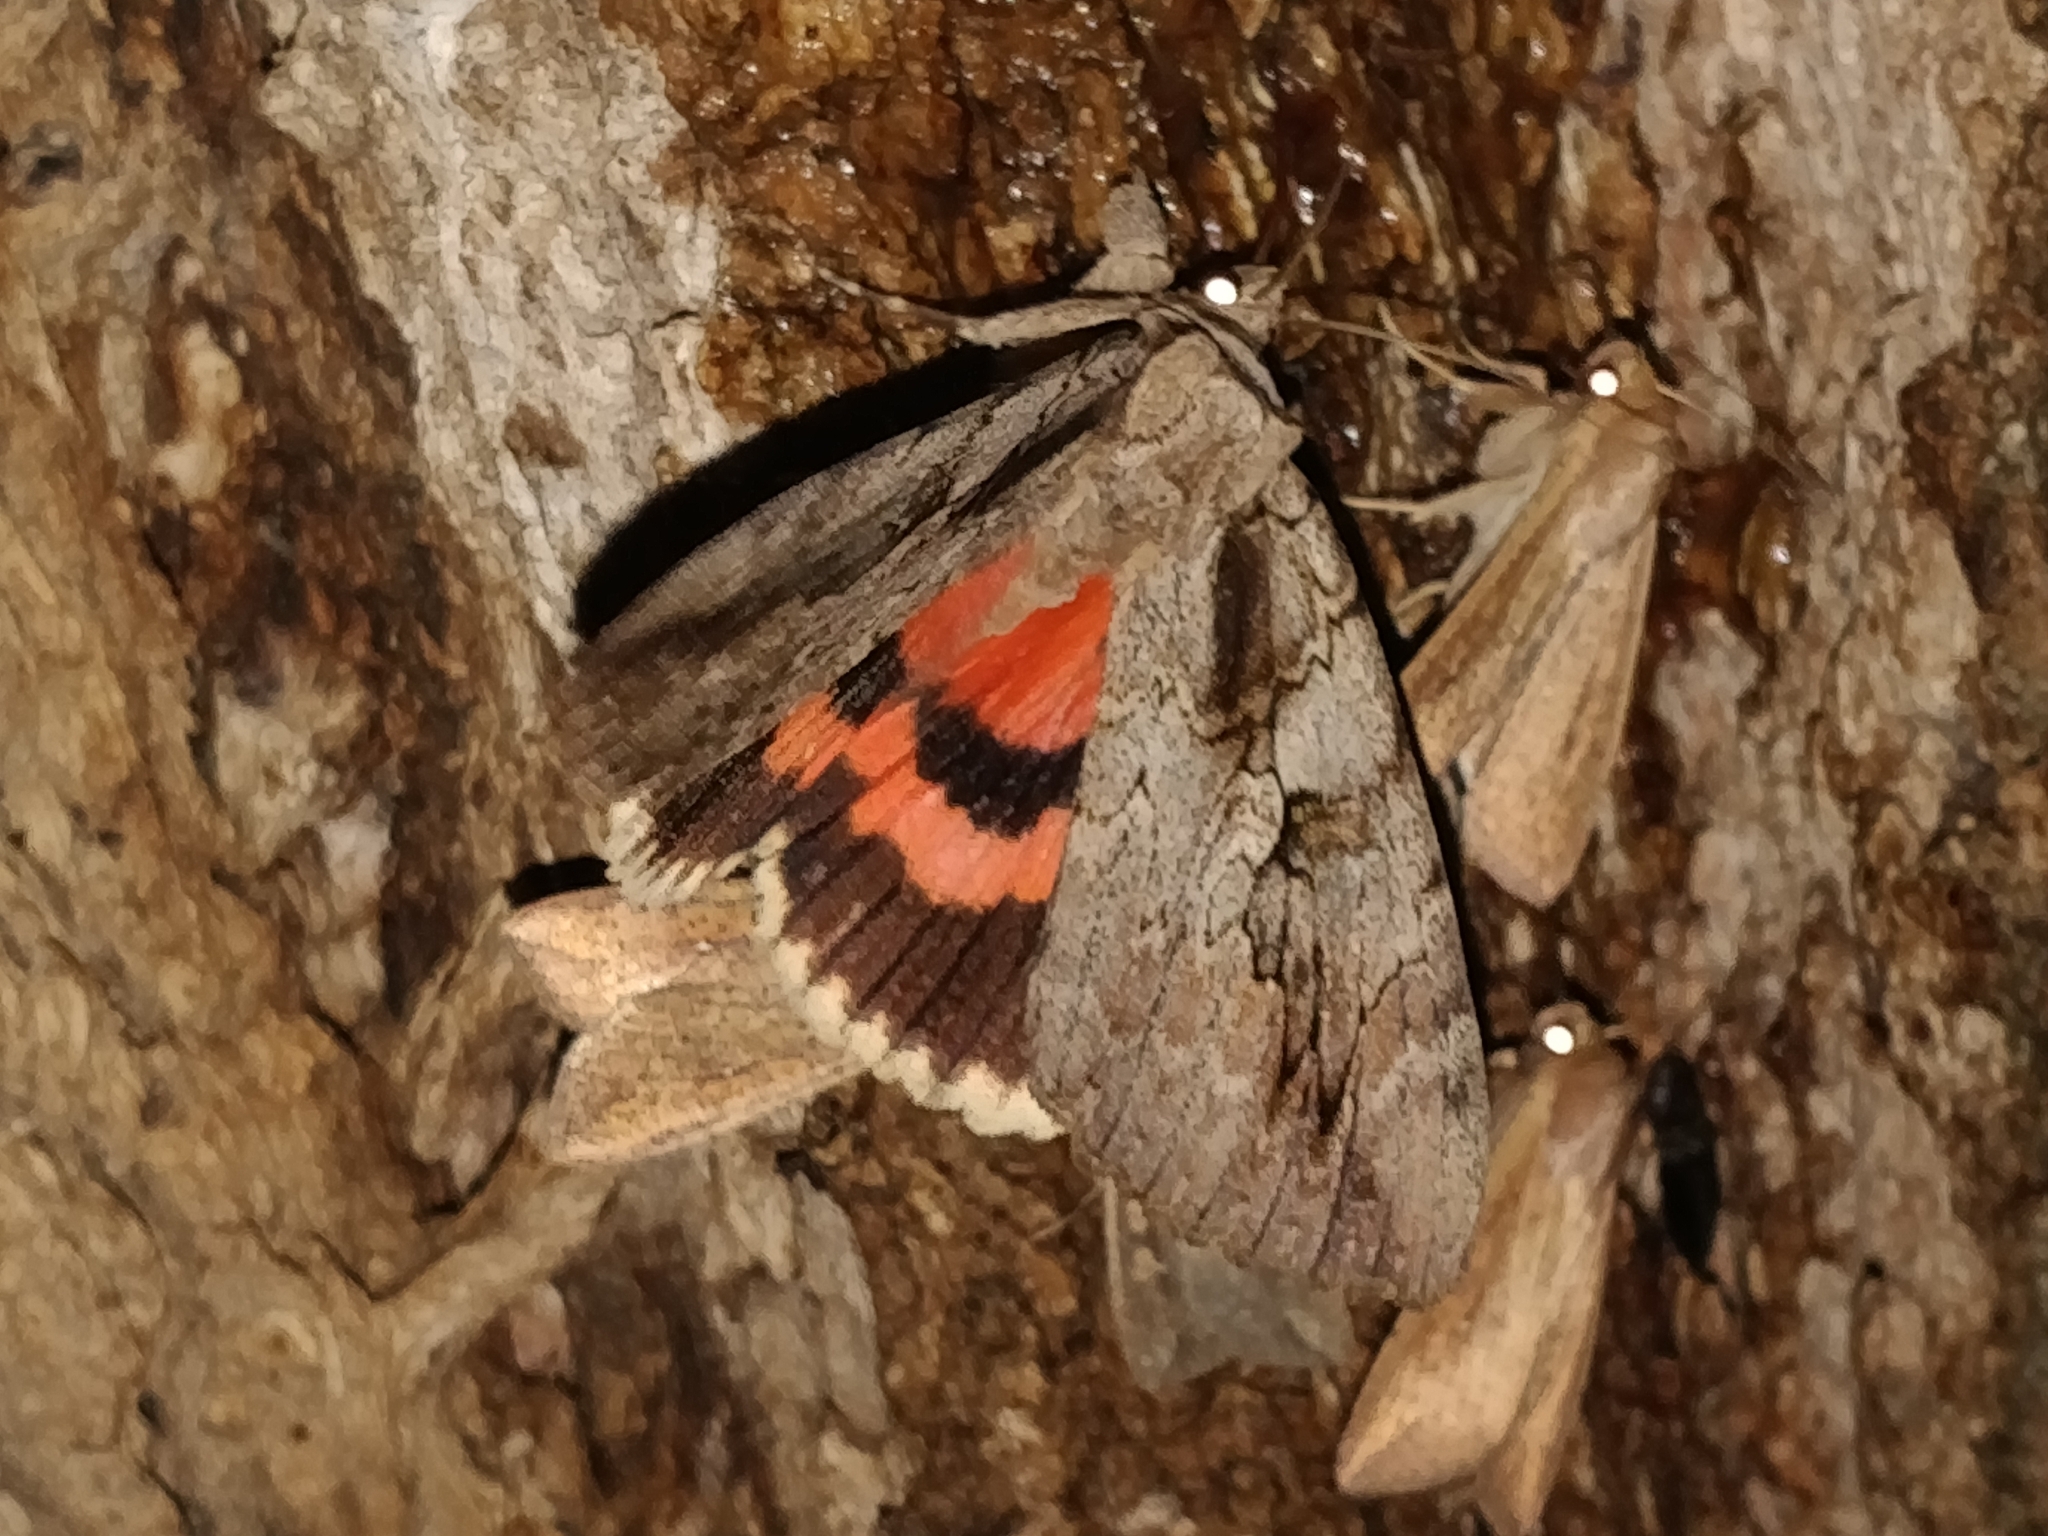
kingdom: Animalia
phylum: Arthropoda
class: Insecta
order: Lepidoptera
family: Erebidae
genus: Catocala
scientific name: Catocala amatrix
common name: Sweetheart underwing
